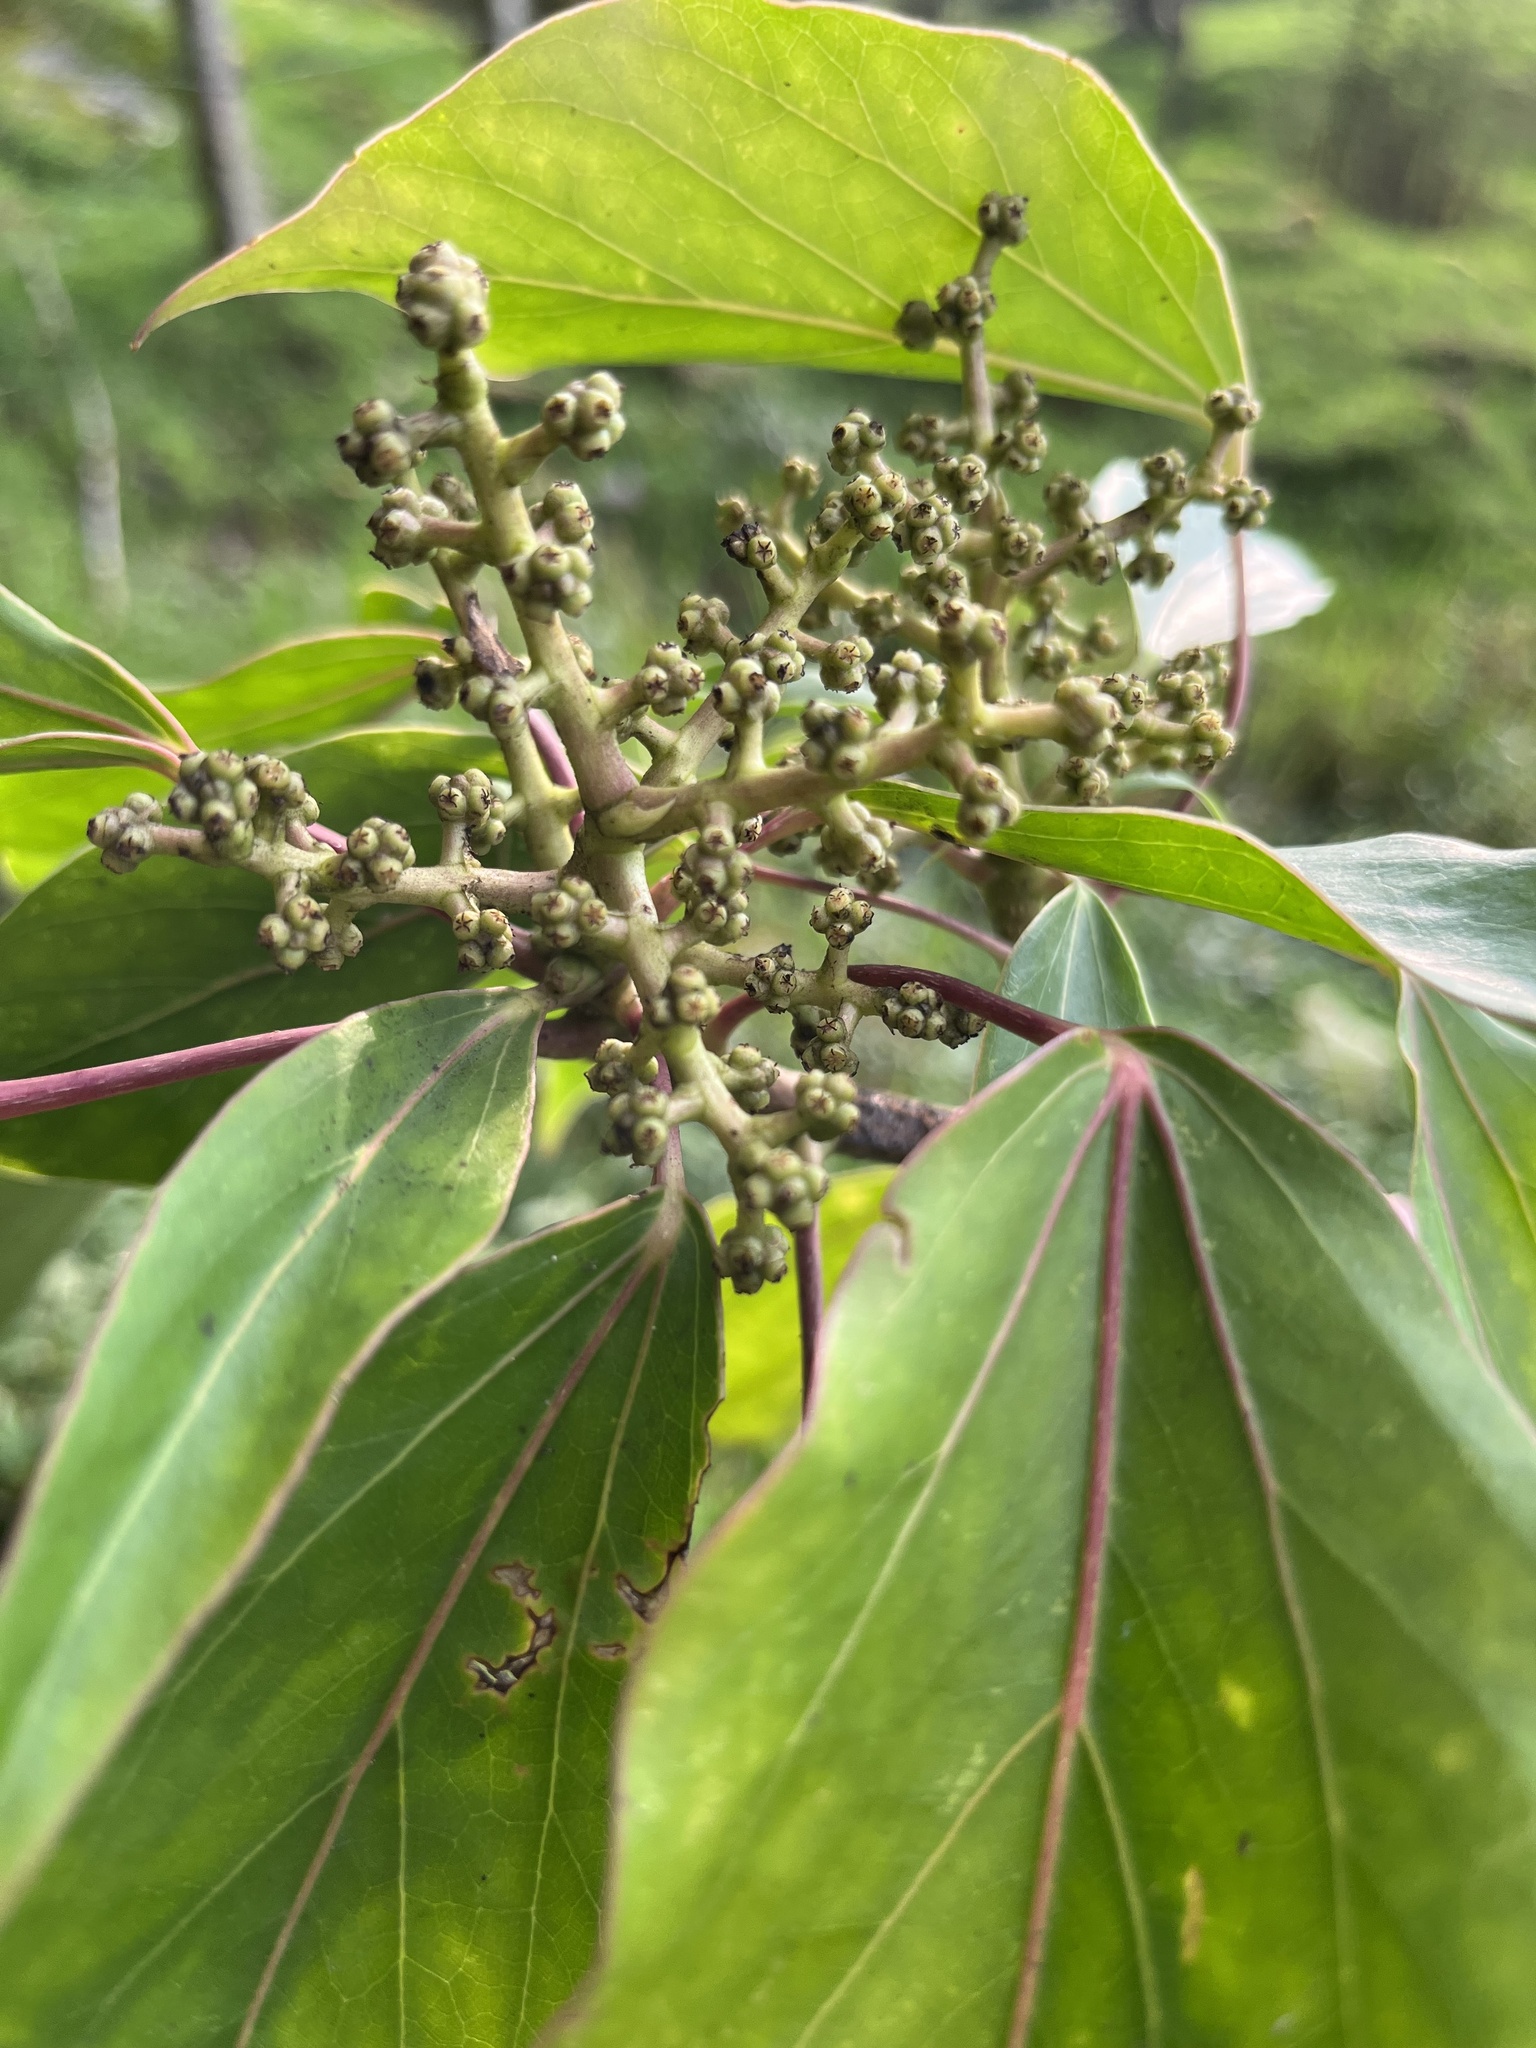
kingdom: Plantae
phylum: Tracheophyta
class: Magnoliopsida
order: Apiales
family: Araliaceae
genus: Oreopanax
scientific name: Oreopanax capitatus
